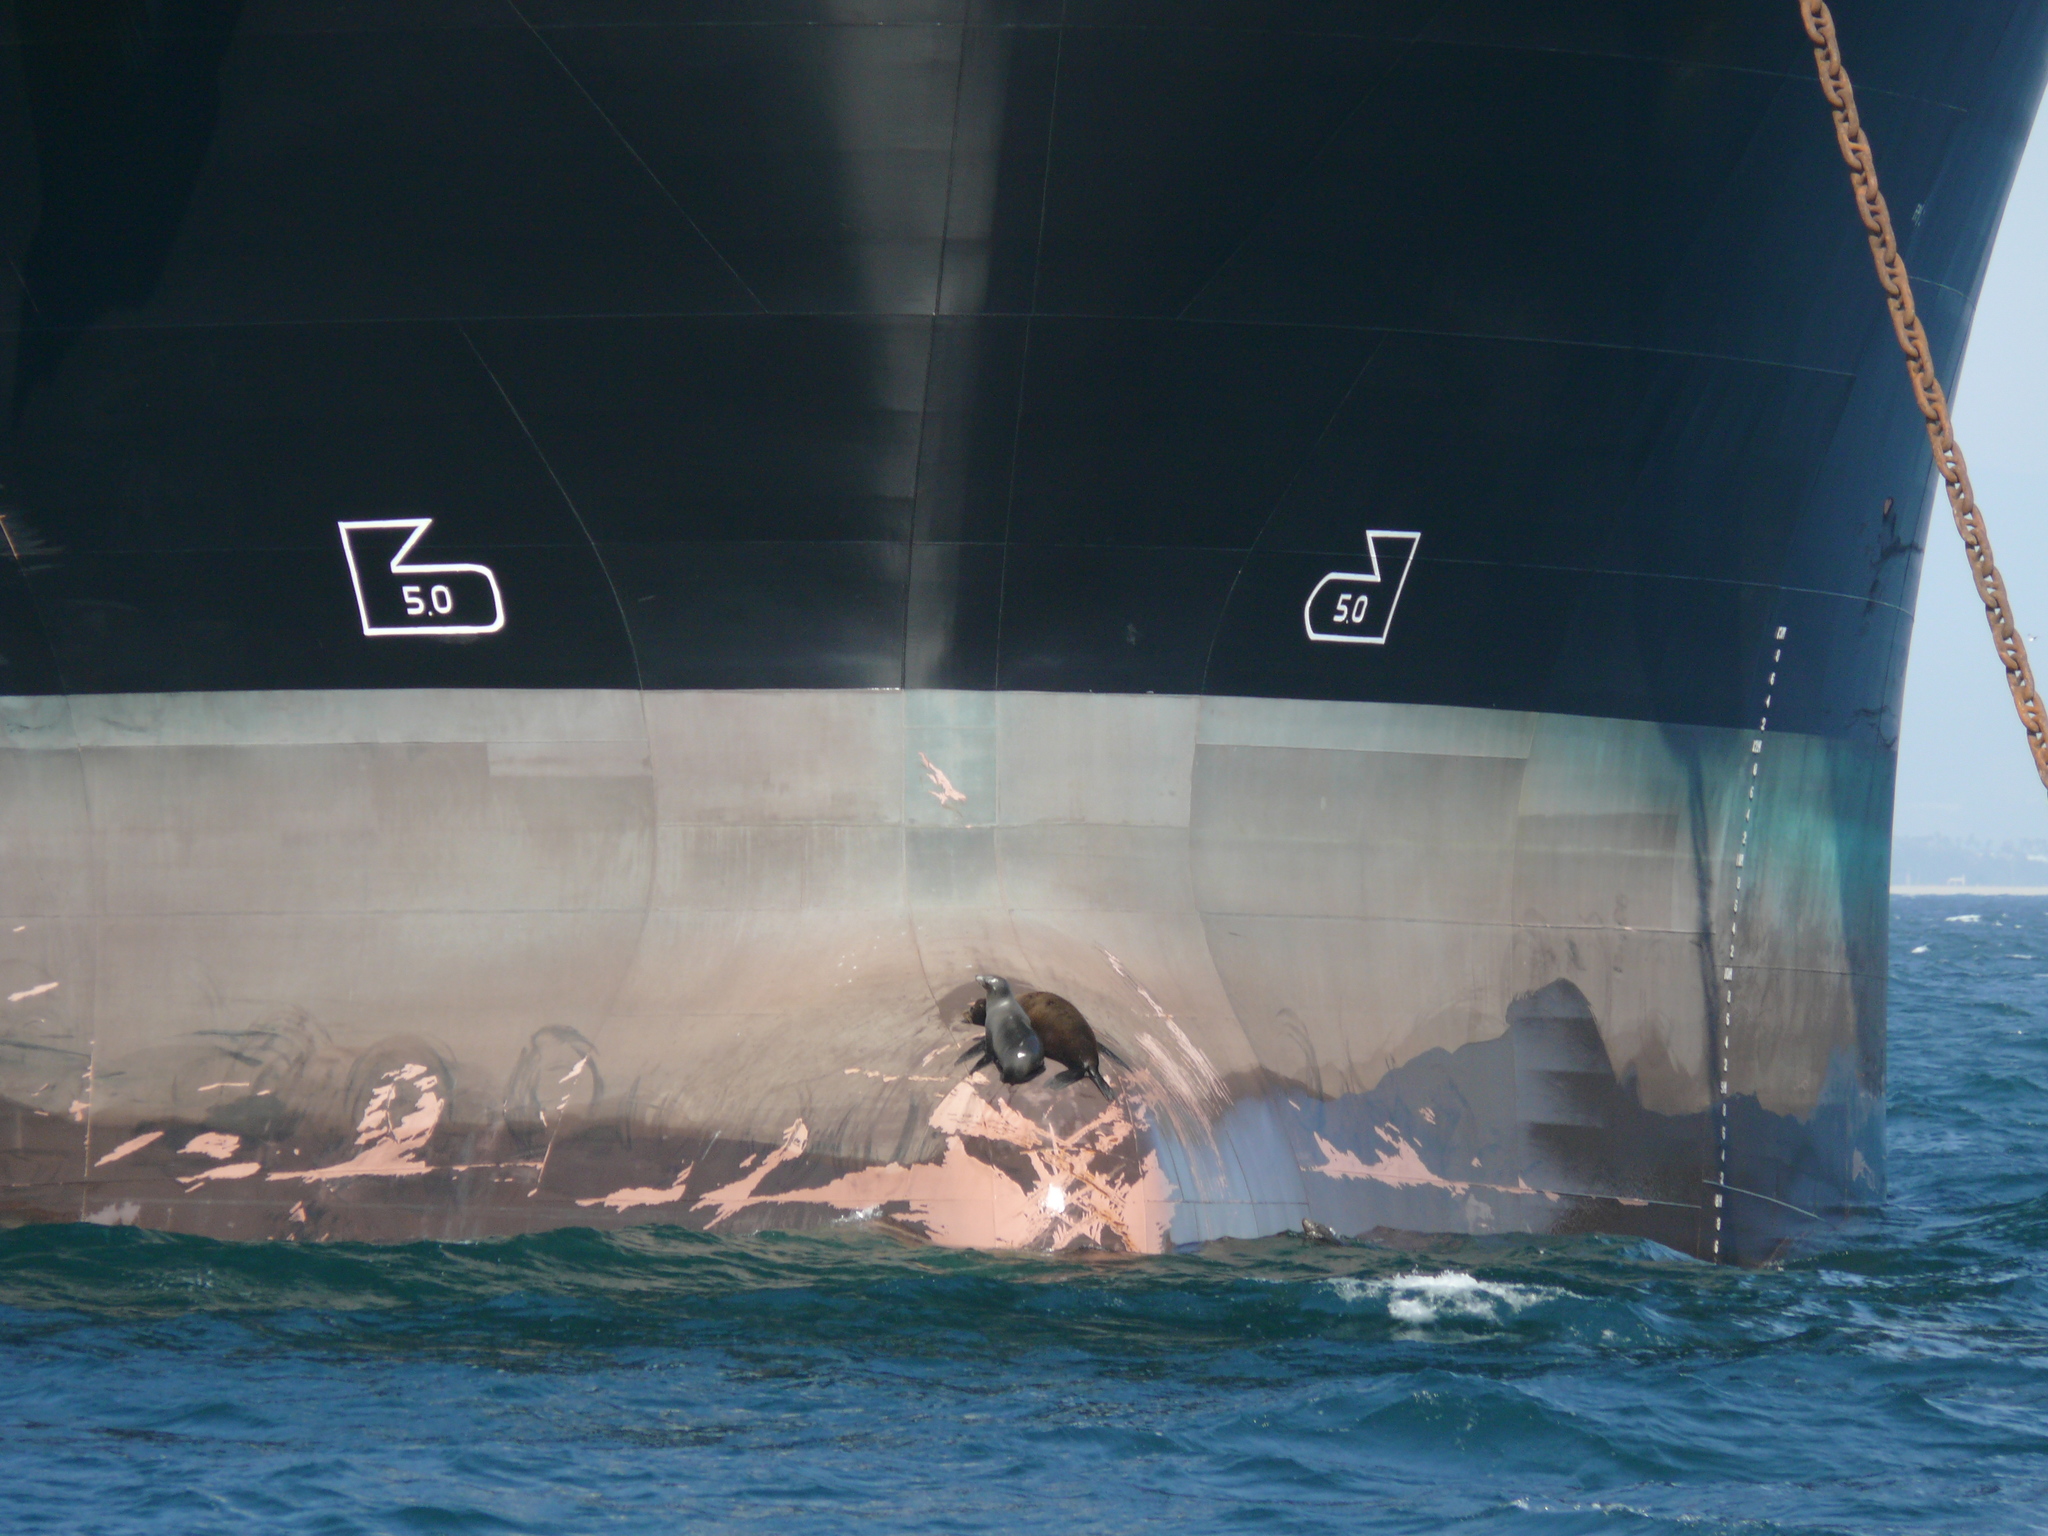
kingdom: Animalia
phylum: Chordata
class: Mammalia
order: Carnivora
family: Otariidae
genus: Zalophus
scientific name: Zalophus californianus
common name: California sea lion
